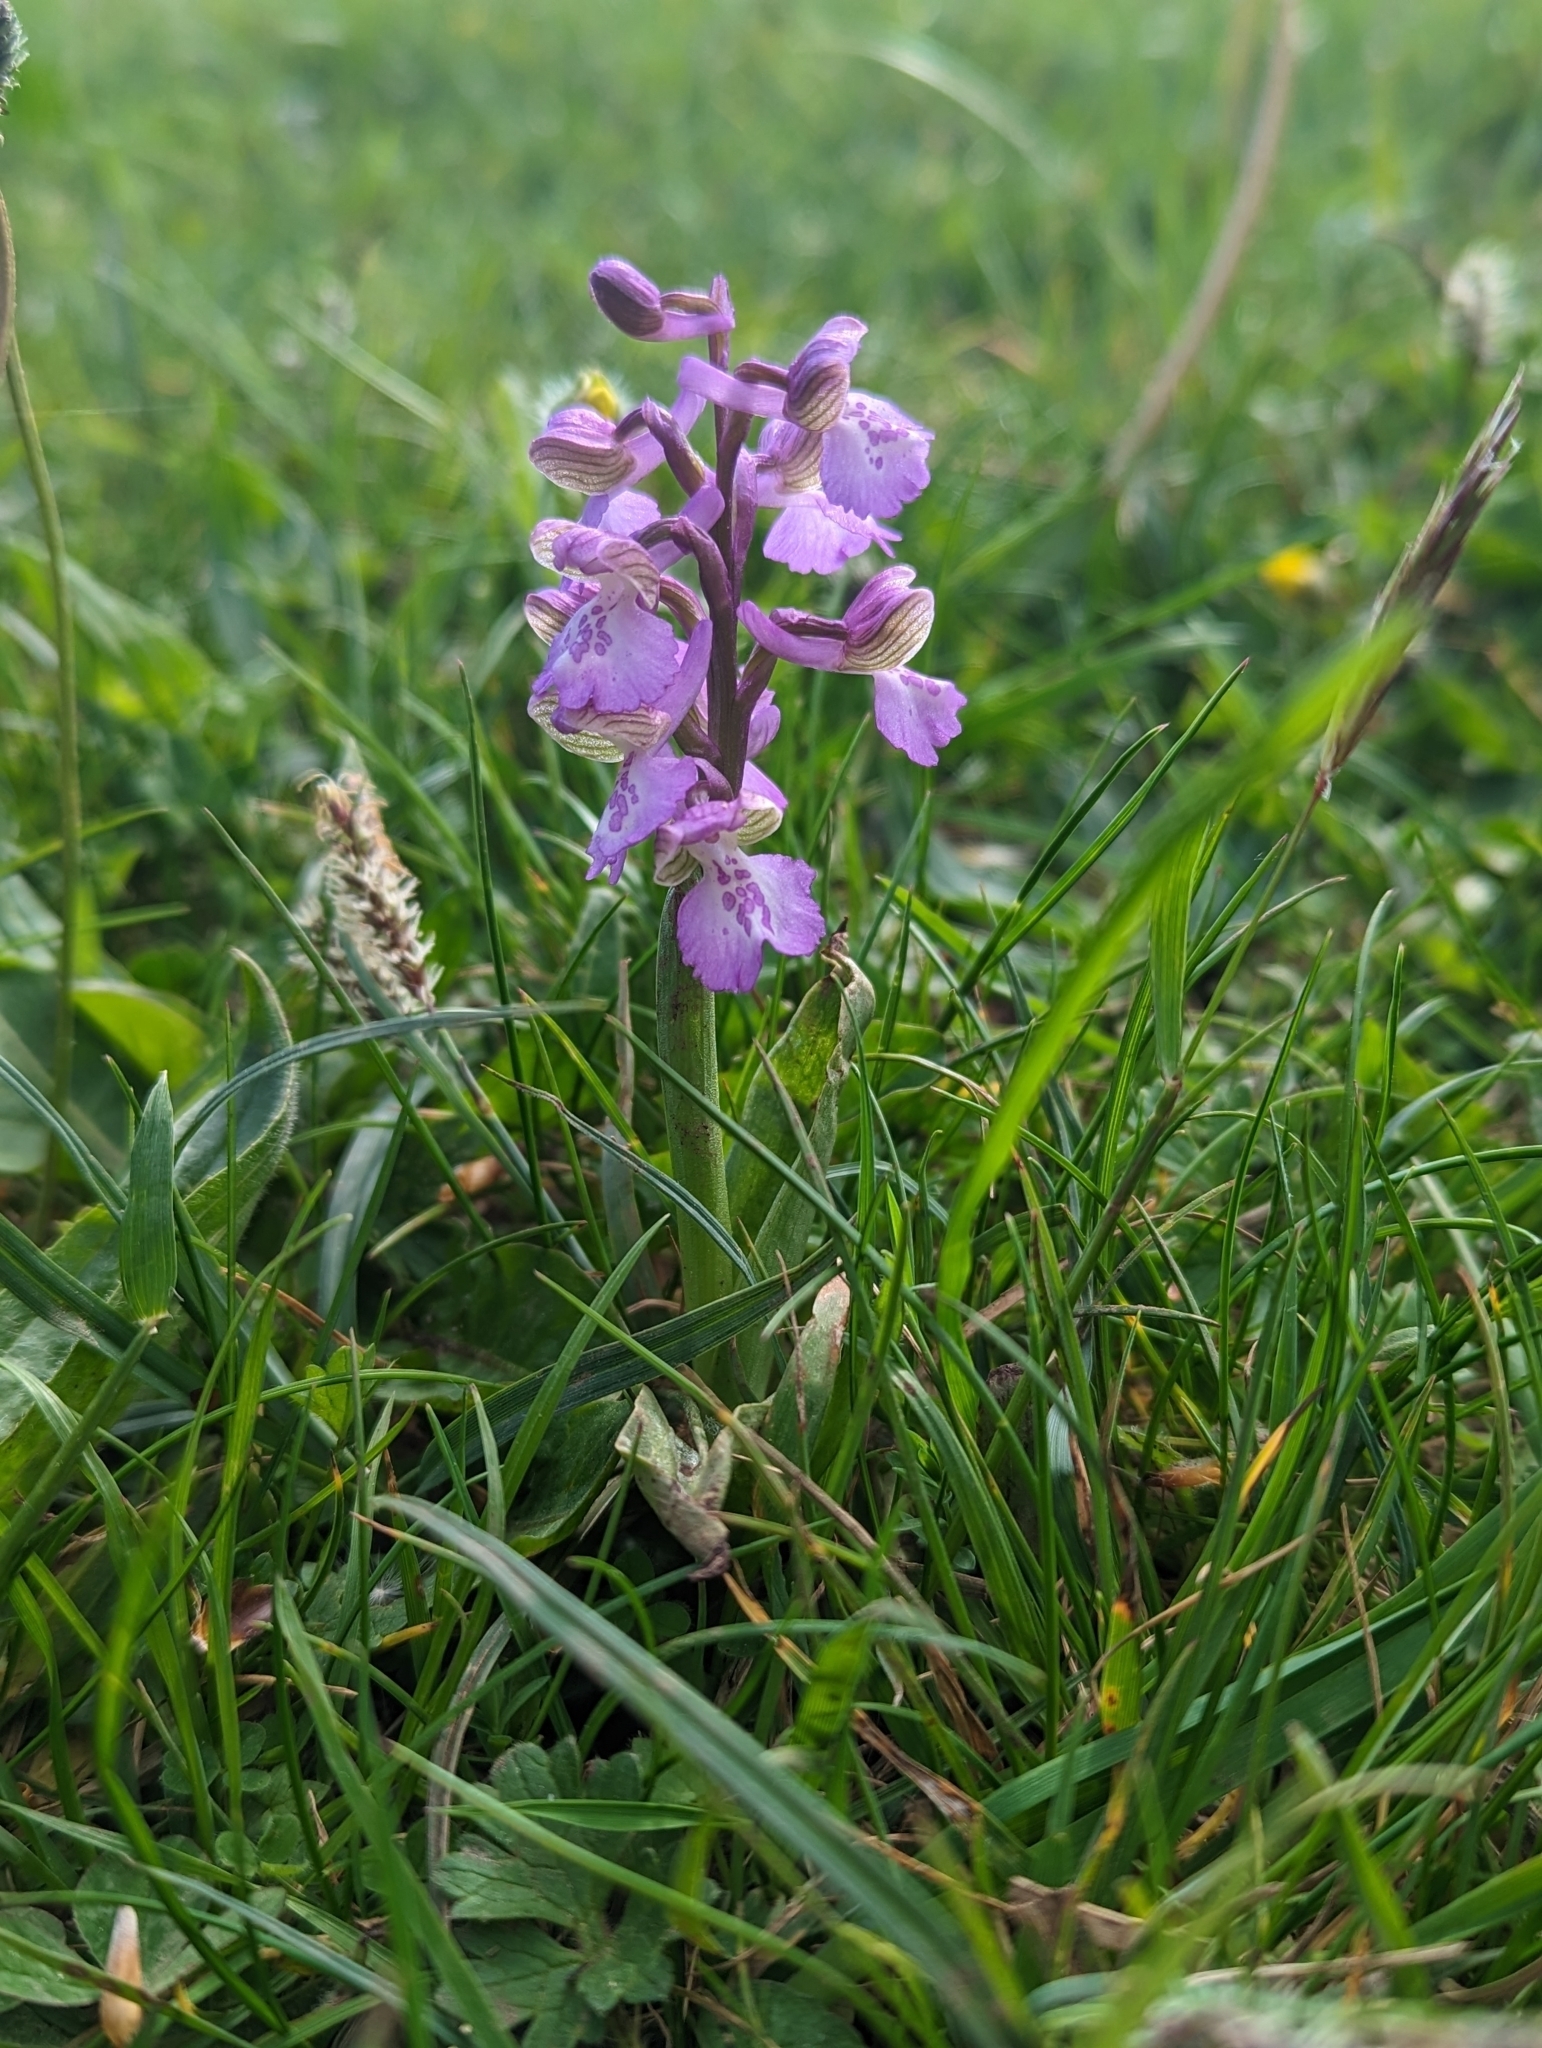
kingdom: Plantae
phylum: Tracheophyta
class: Liliopsida
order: Asparagales
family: Orchidaceae
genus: Anacamptis
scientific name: Anacamptis morio
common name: Green-winged orchid
